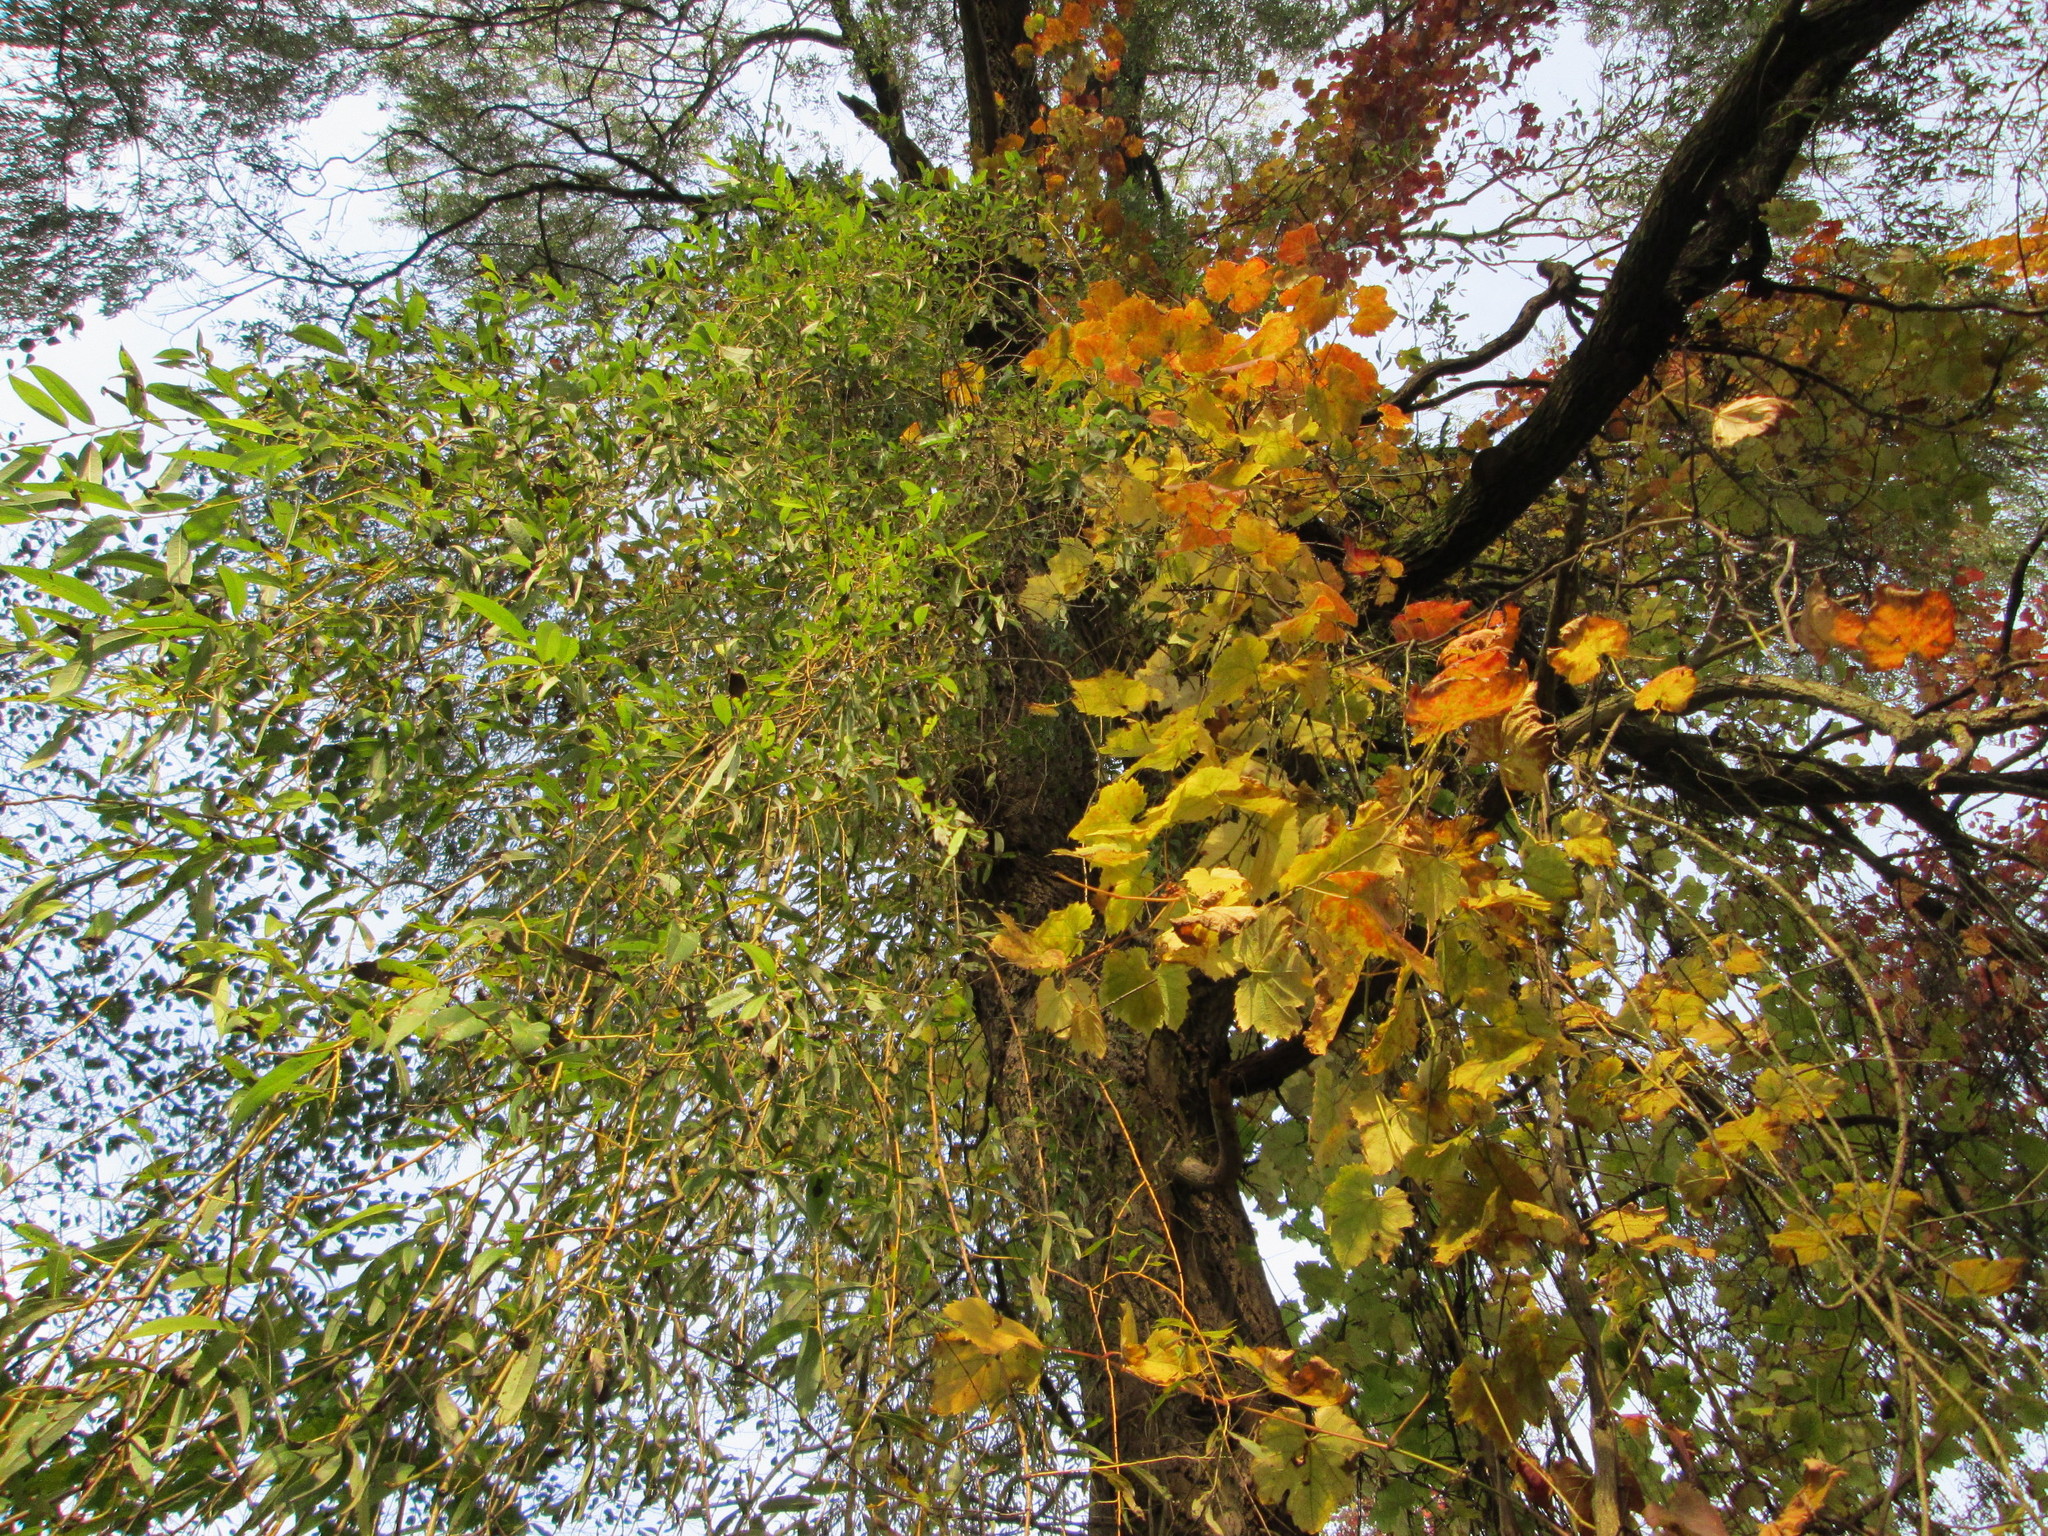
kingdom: Plantae
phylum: Tracheophyta
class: Magnoliopsida
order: Vitales
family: Vitaceae
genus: Vitis
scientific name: Vitis vinifera
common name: Grape-vine
